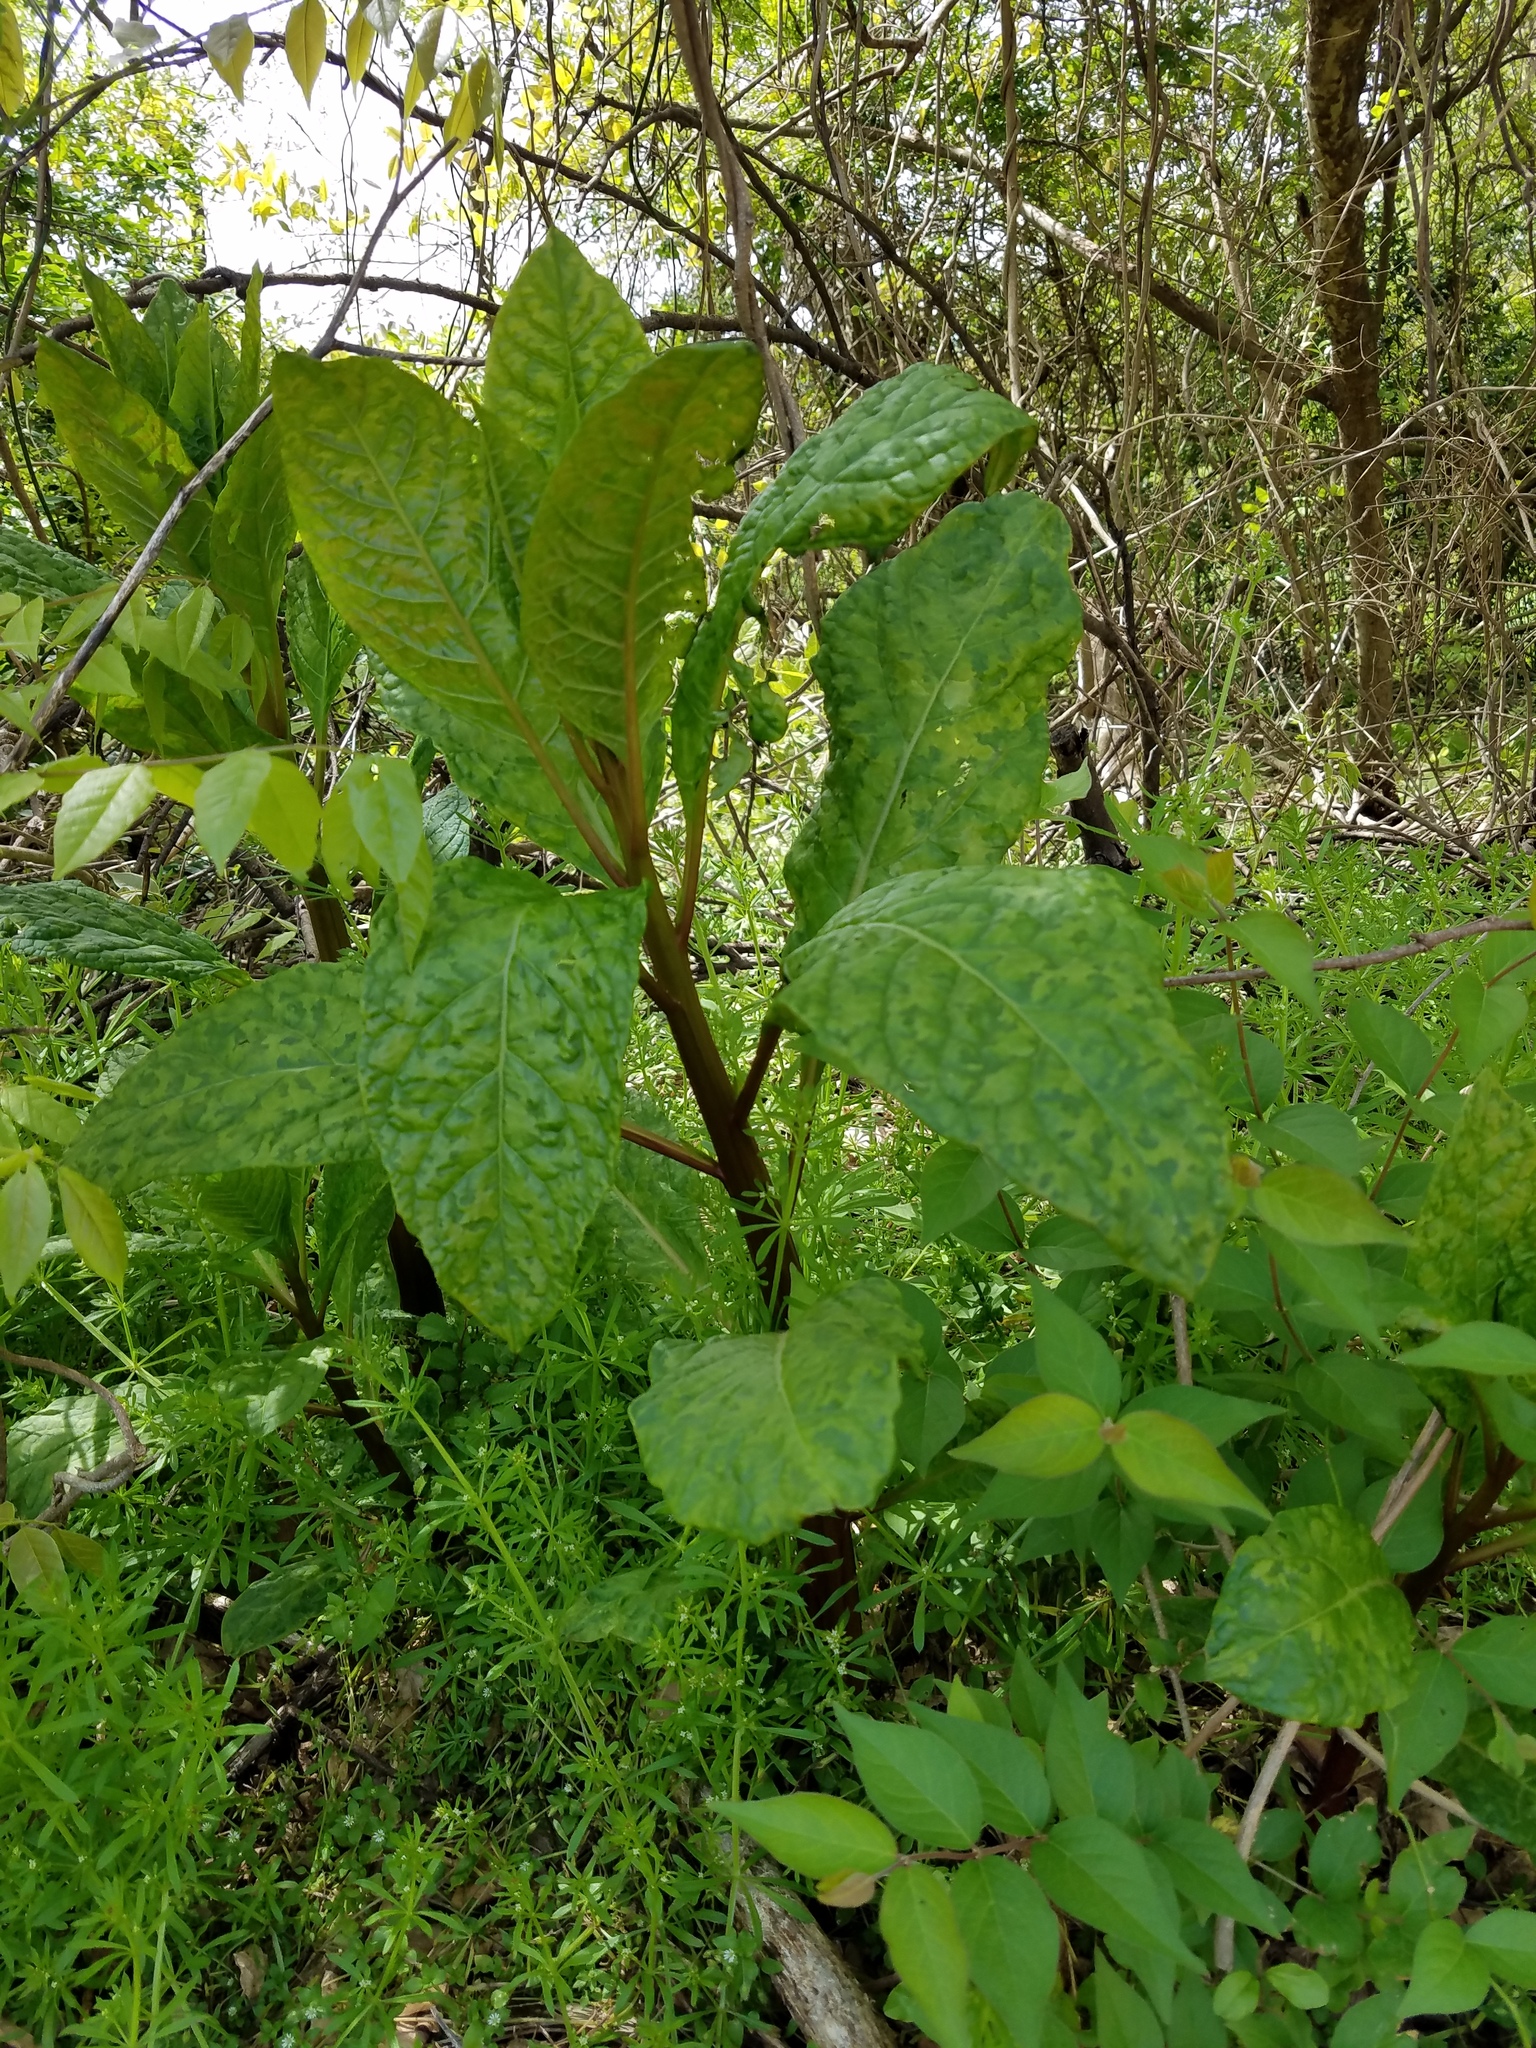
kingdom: Plantae
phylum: Tracheophyta
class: Magnoliopsida
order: Caryophyllales
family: Phytolaccaceae
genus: Phytolacca
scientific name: Phytolacca americana
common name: American pokeweed
